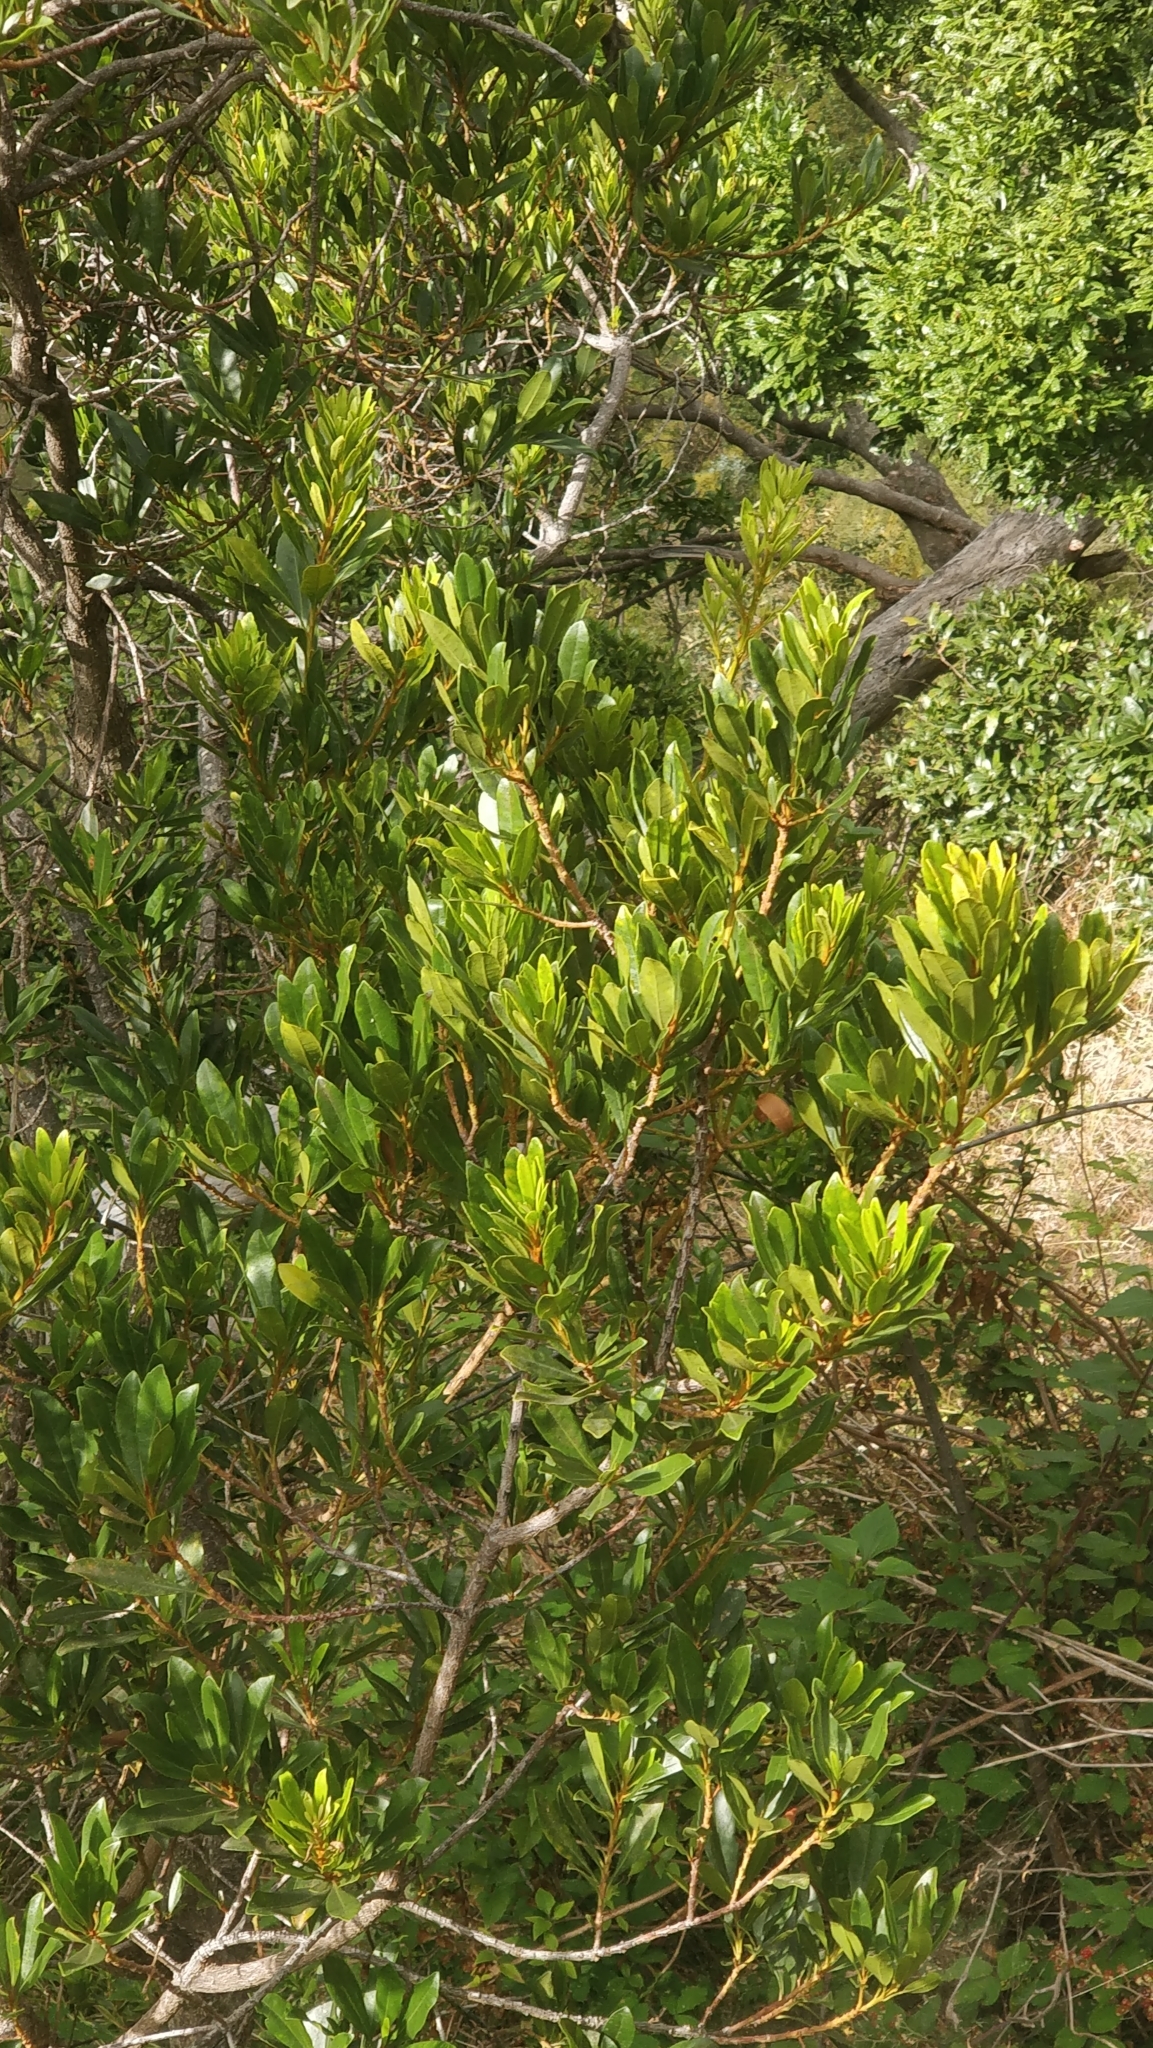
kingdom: Plantae
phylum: Tracheophyta
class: Magnoliopsida
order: Fagales
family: Myricaceae
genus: Morella
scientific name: Morella faya
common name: Firetree
